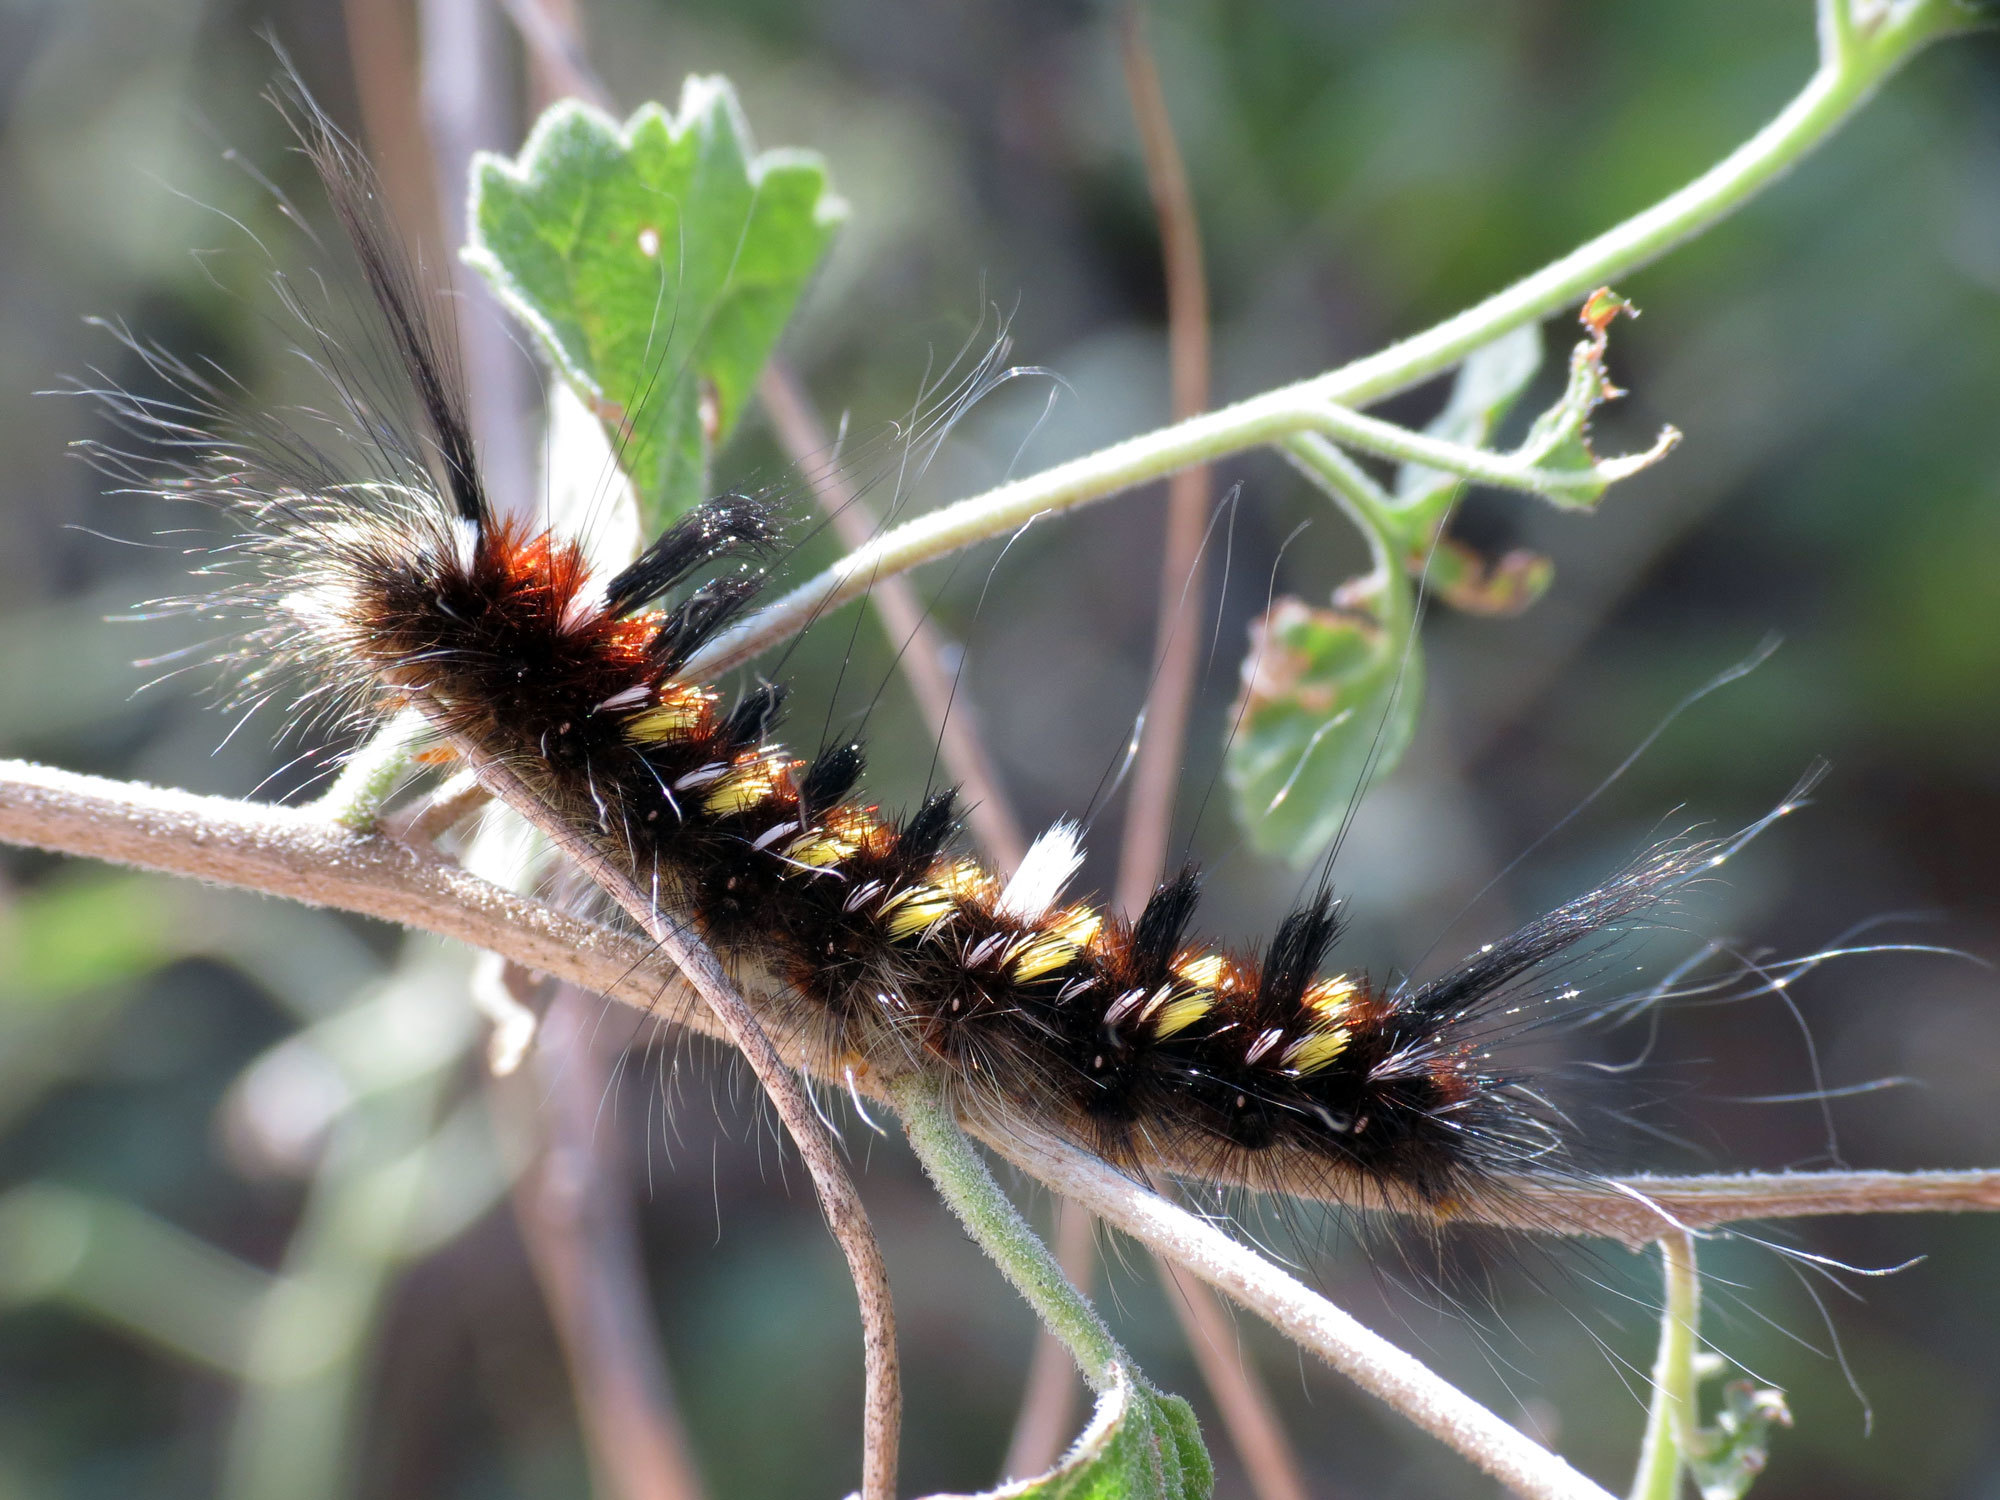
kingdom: Animalia
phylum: Arthropoda
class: Insecta
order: Lepidoptera
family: Apatelodidae
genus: Hygrochroa
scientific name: Hygrochroa Apatelodes pudefacta
